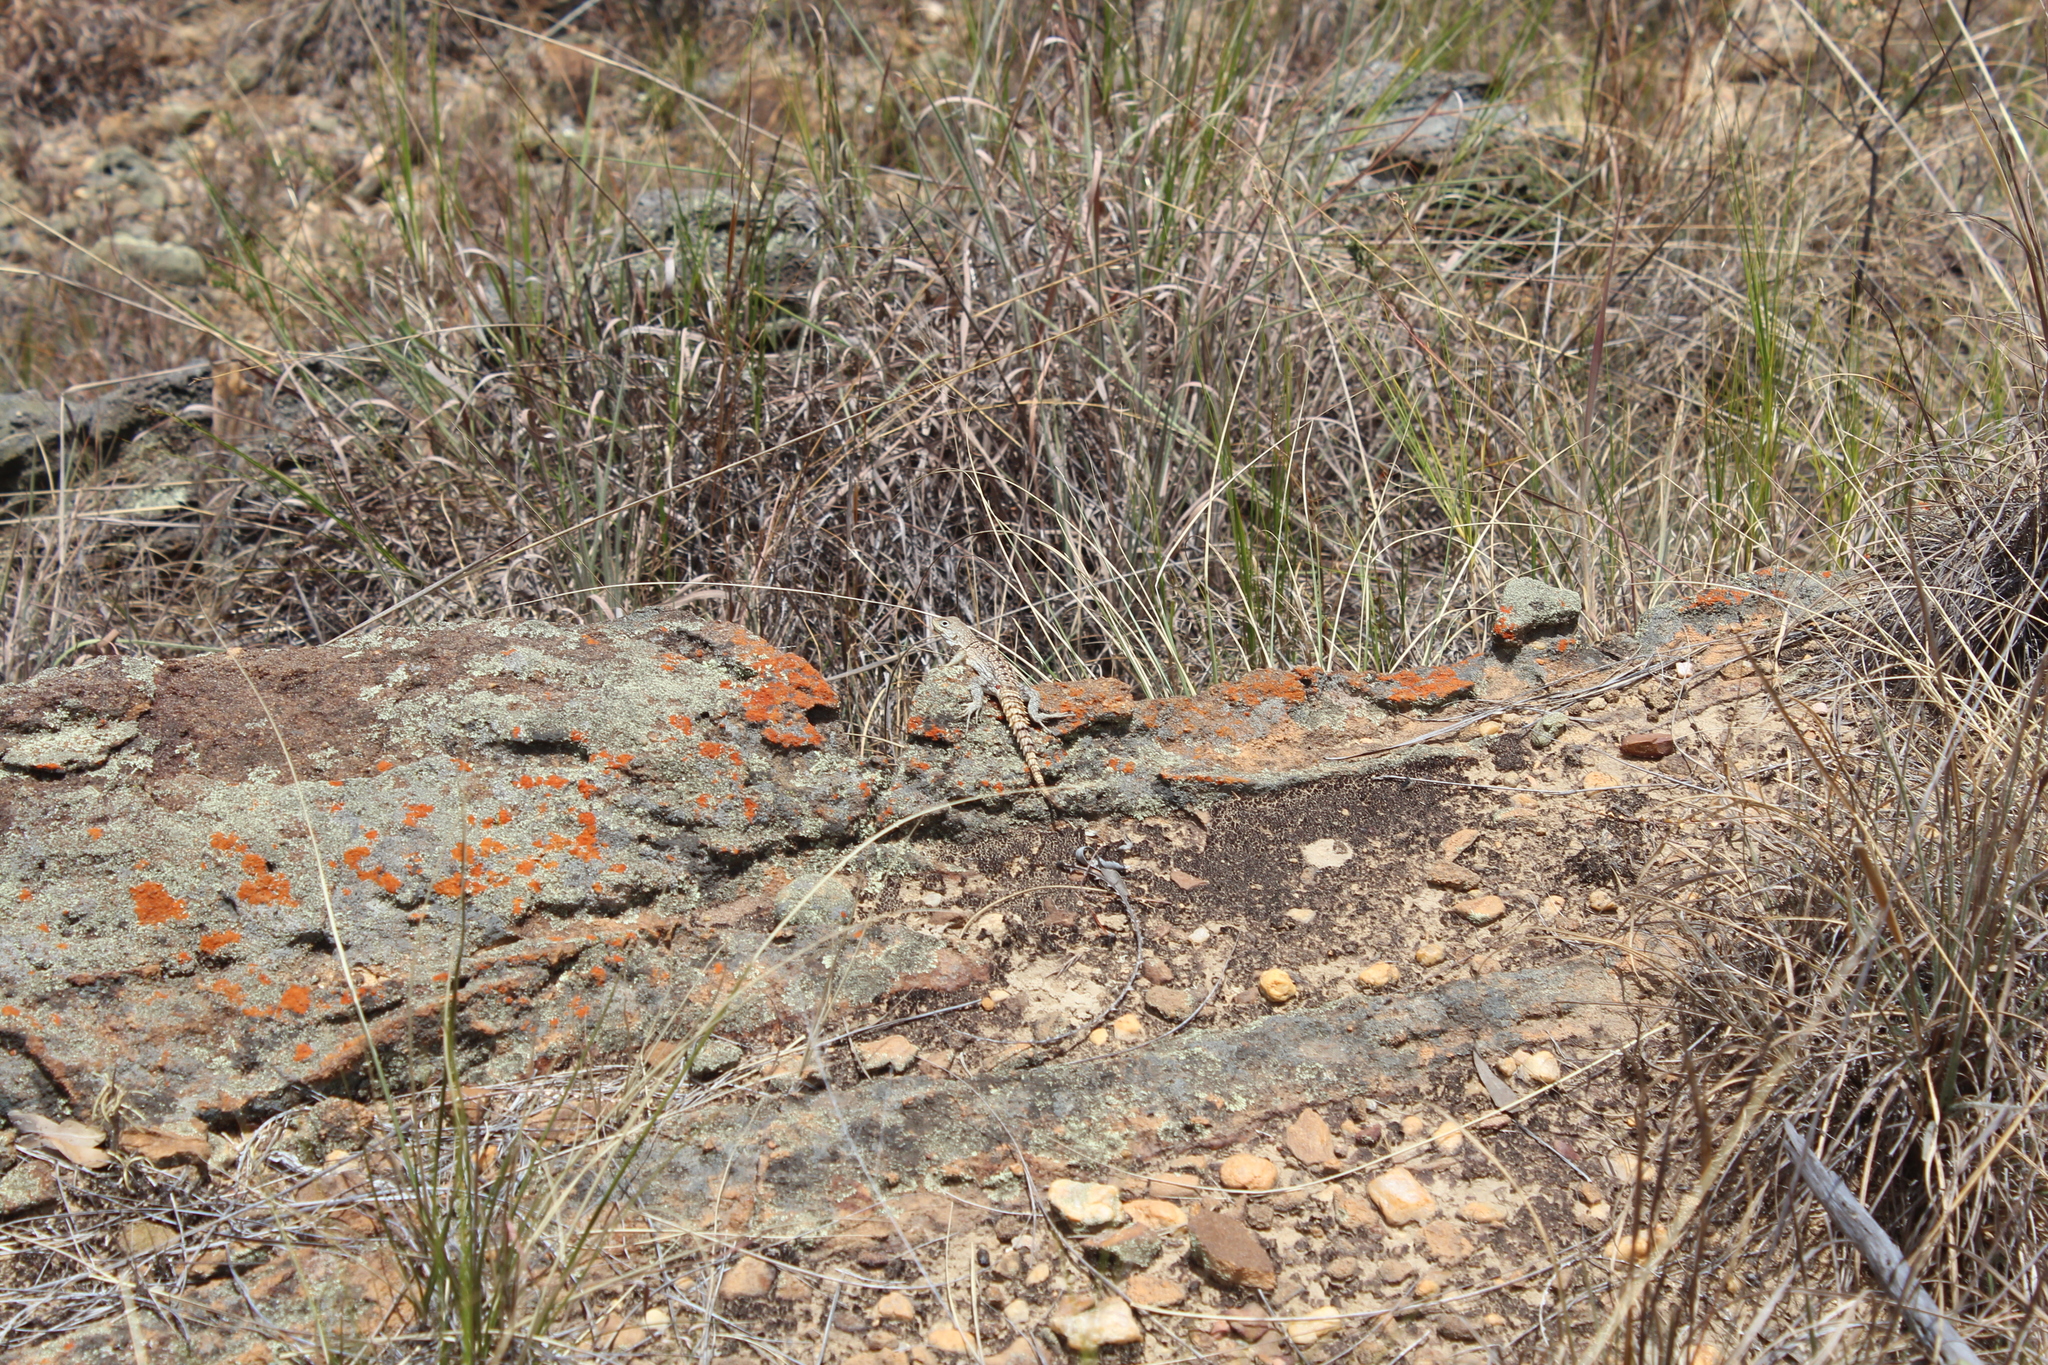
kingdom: Animalia
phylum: Chordata
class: Squamata
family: Opluridae
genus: Oplurus
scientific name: Oplurus cuvieri
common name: Cuvier's madagascar swift
